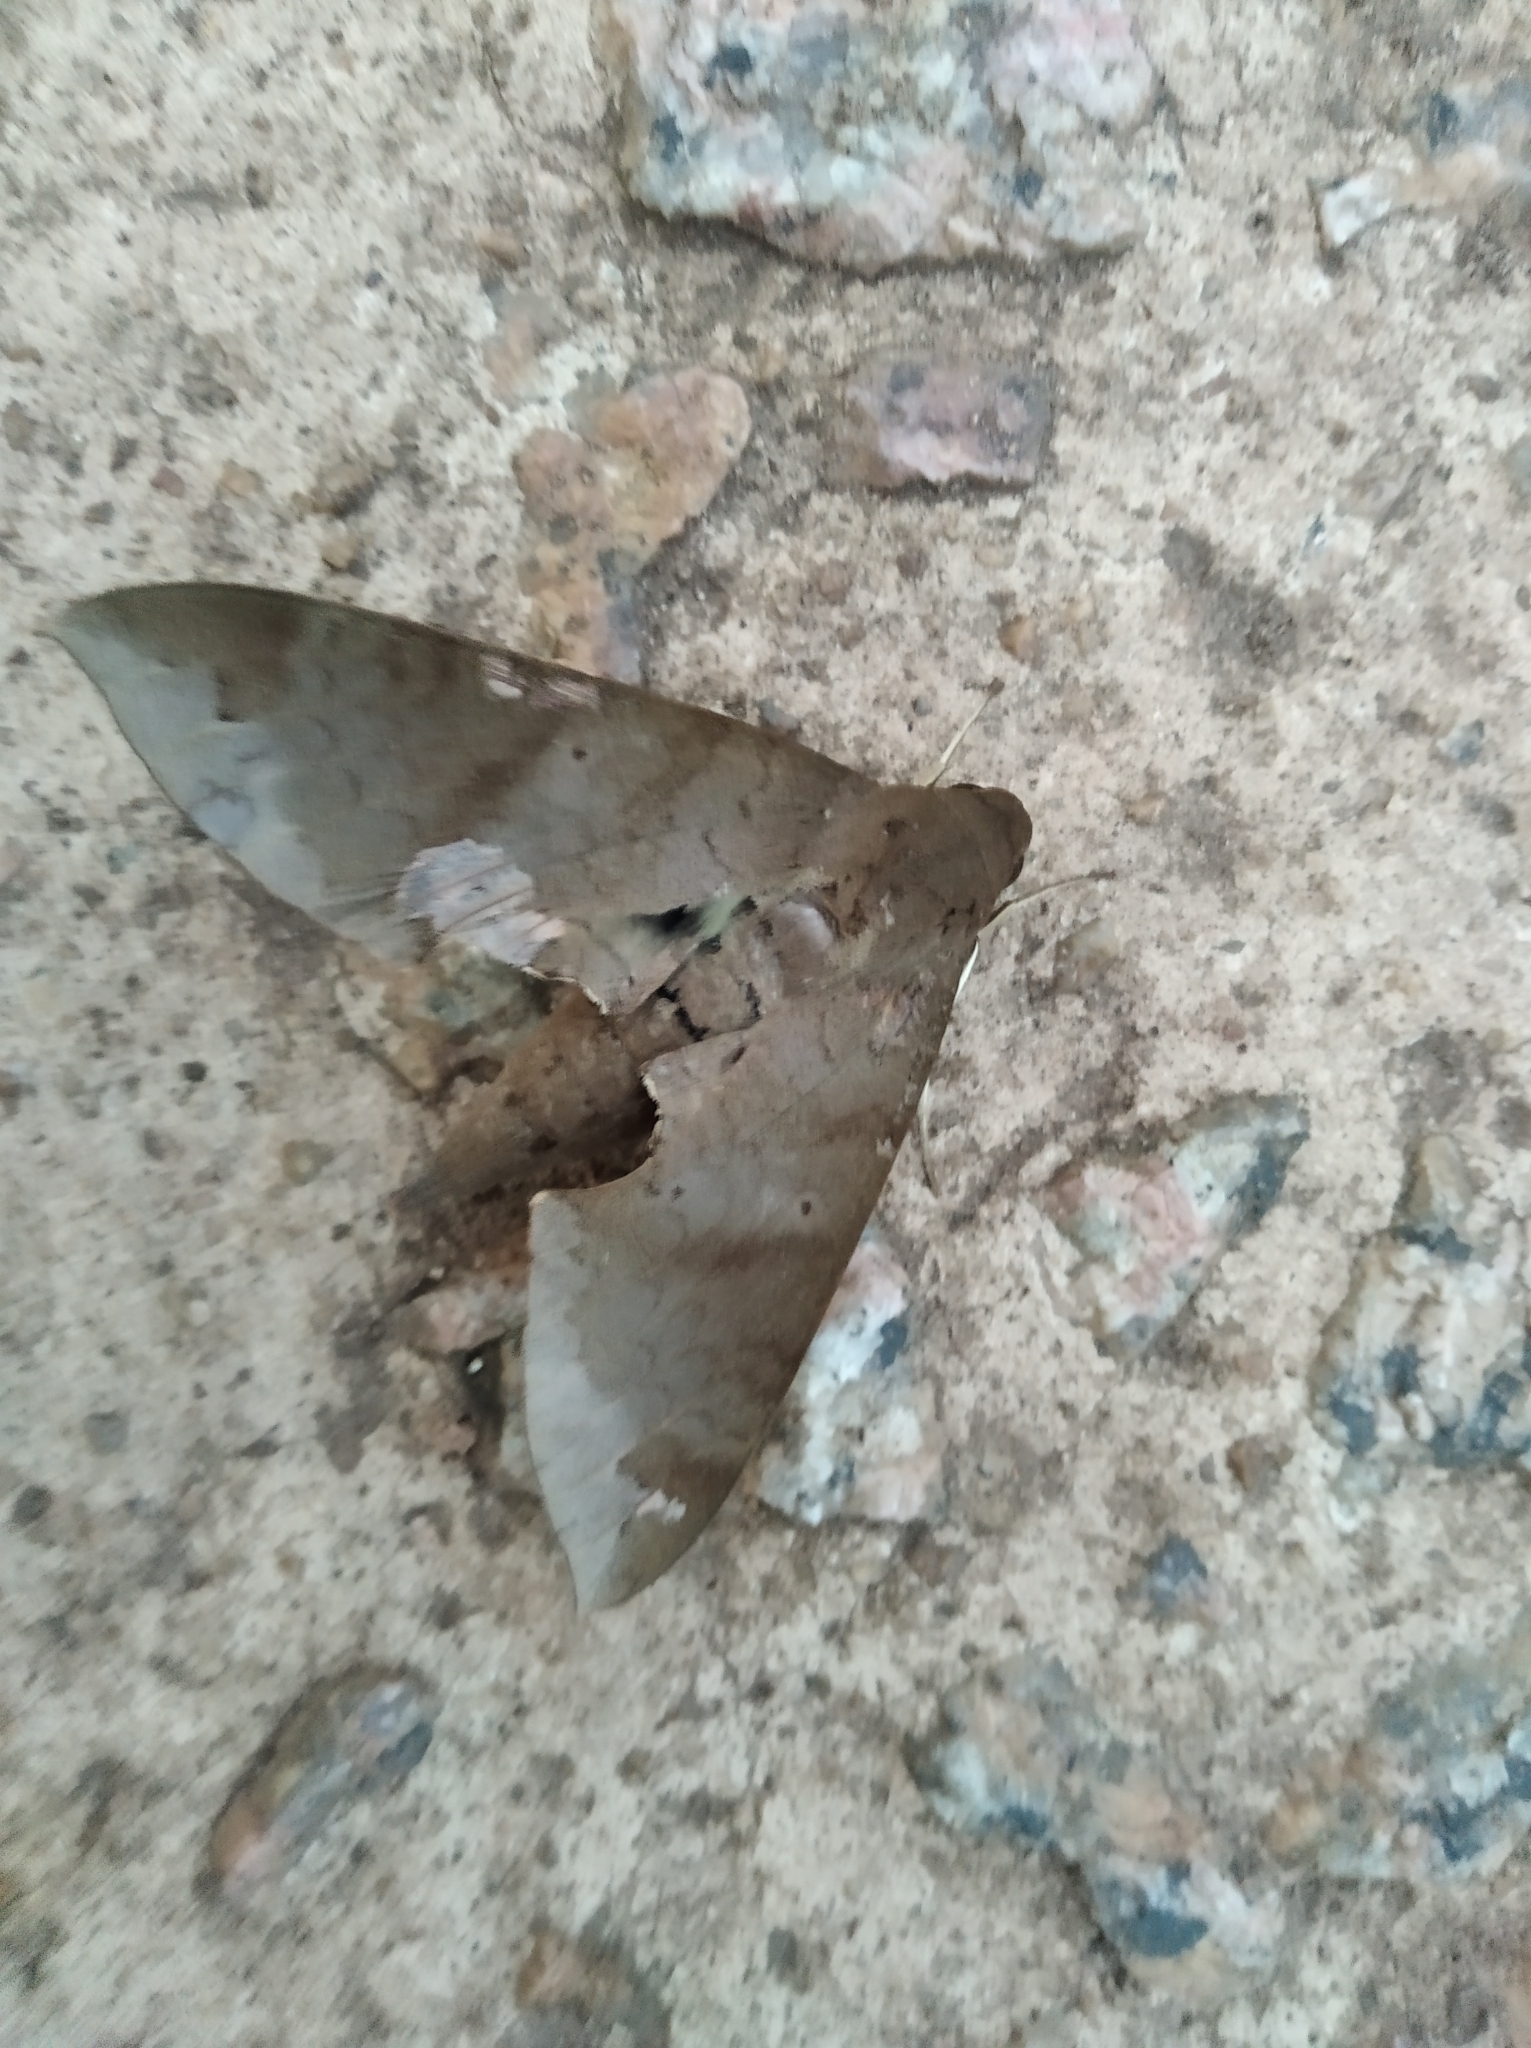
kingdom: Animalia
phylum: Arthropoda
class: Insecta
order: Lepidoptera
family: Sphingidae
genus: Pachylioides
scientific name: Pachylioides resumens
